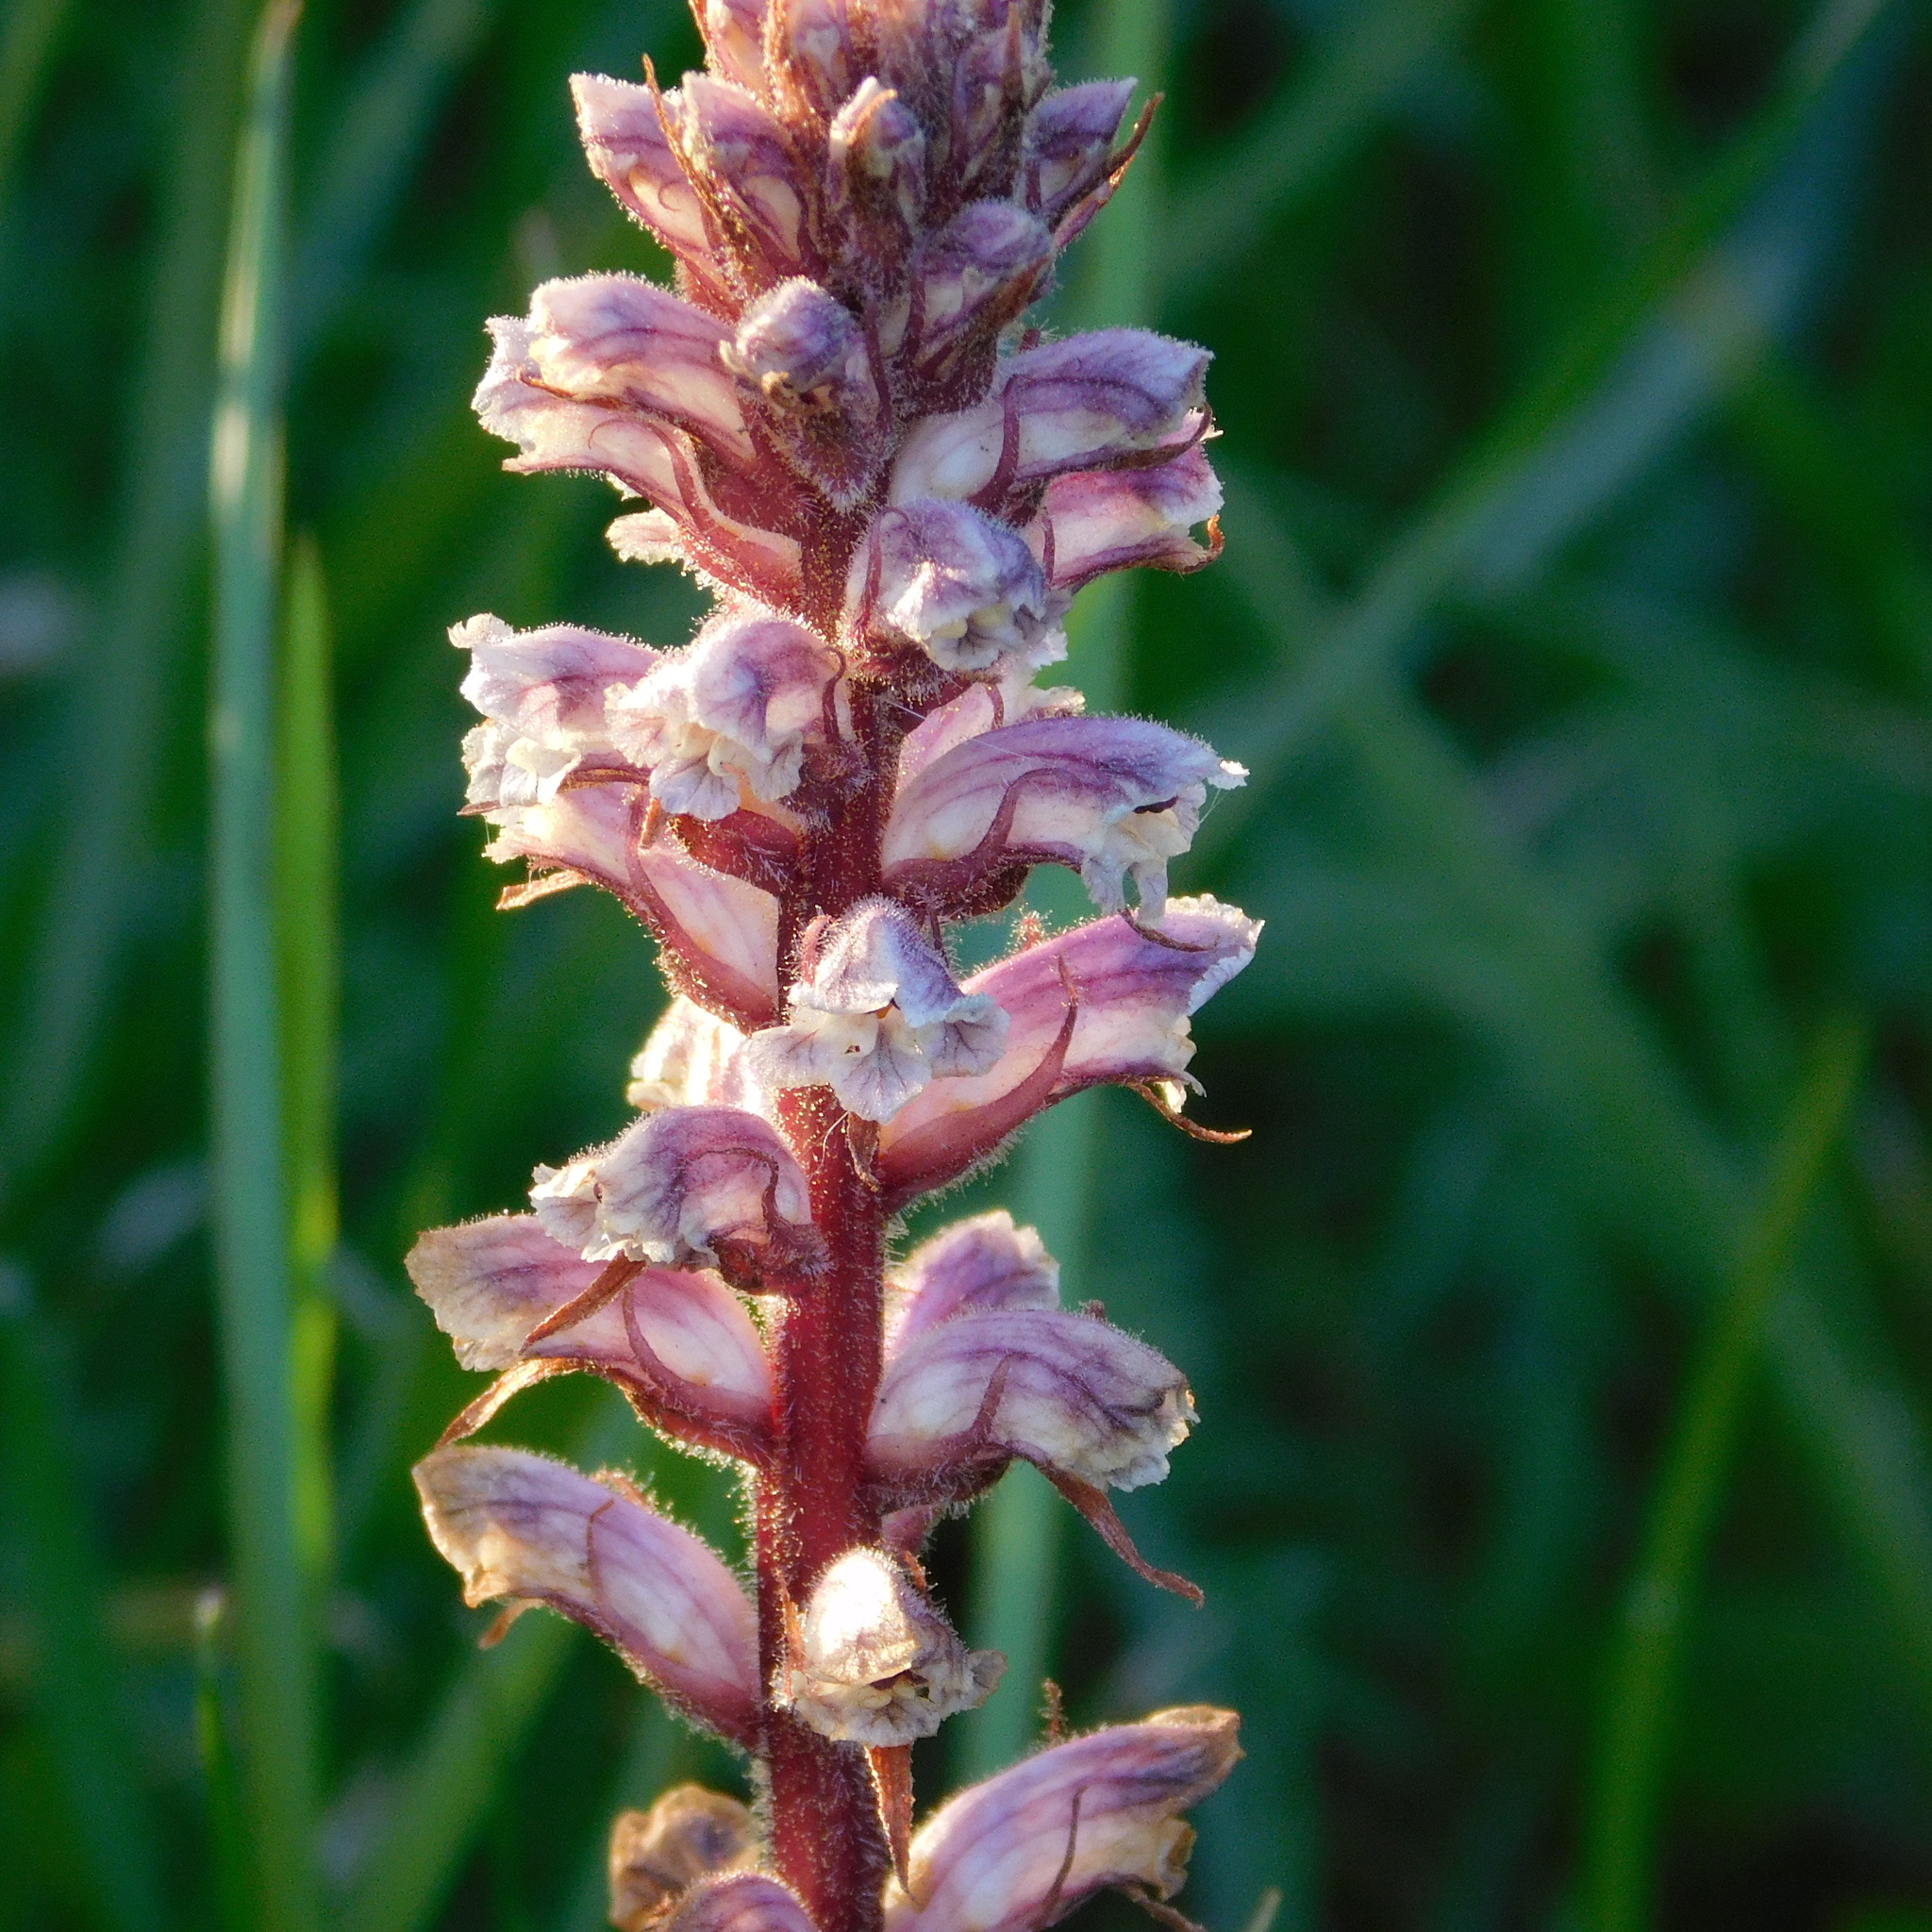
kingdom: Plantae
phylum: Tracheophyta
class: Magnoliopsida
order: Lamiales
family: Orobanchaceae
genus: Orobanche
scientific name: Orobanche minor
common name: Common broomrape
